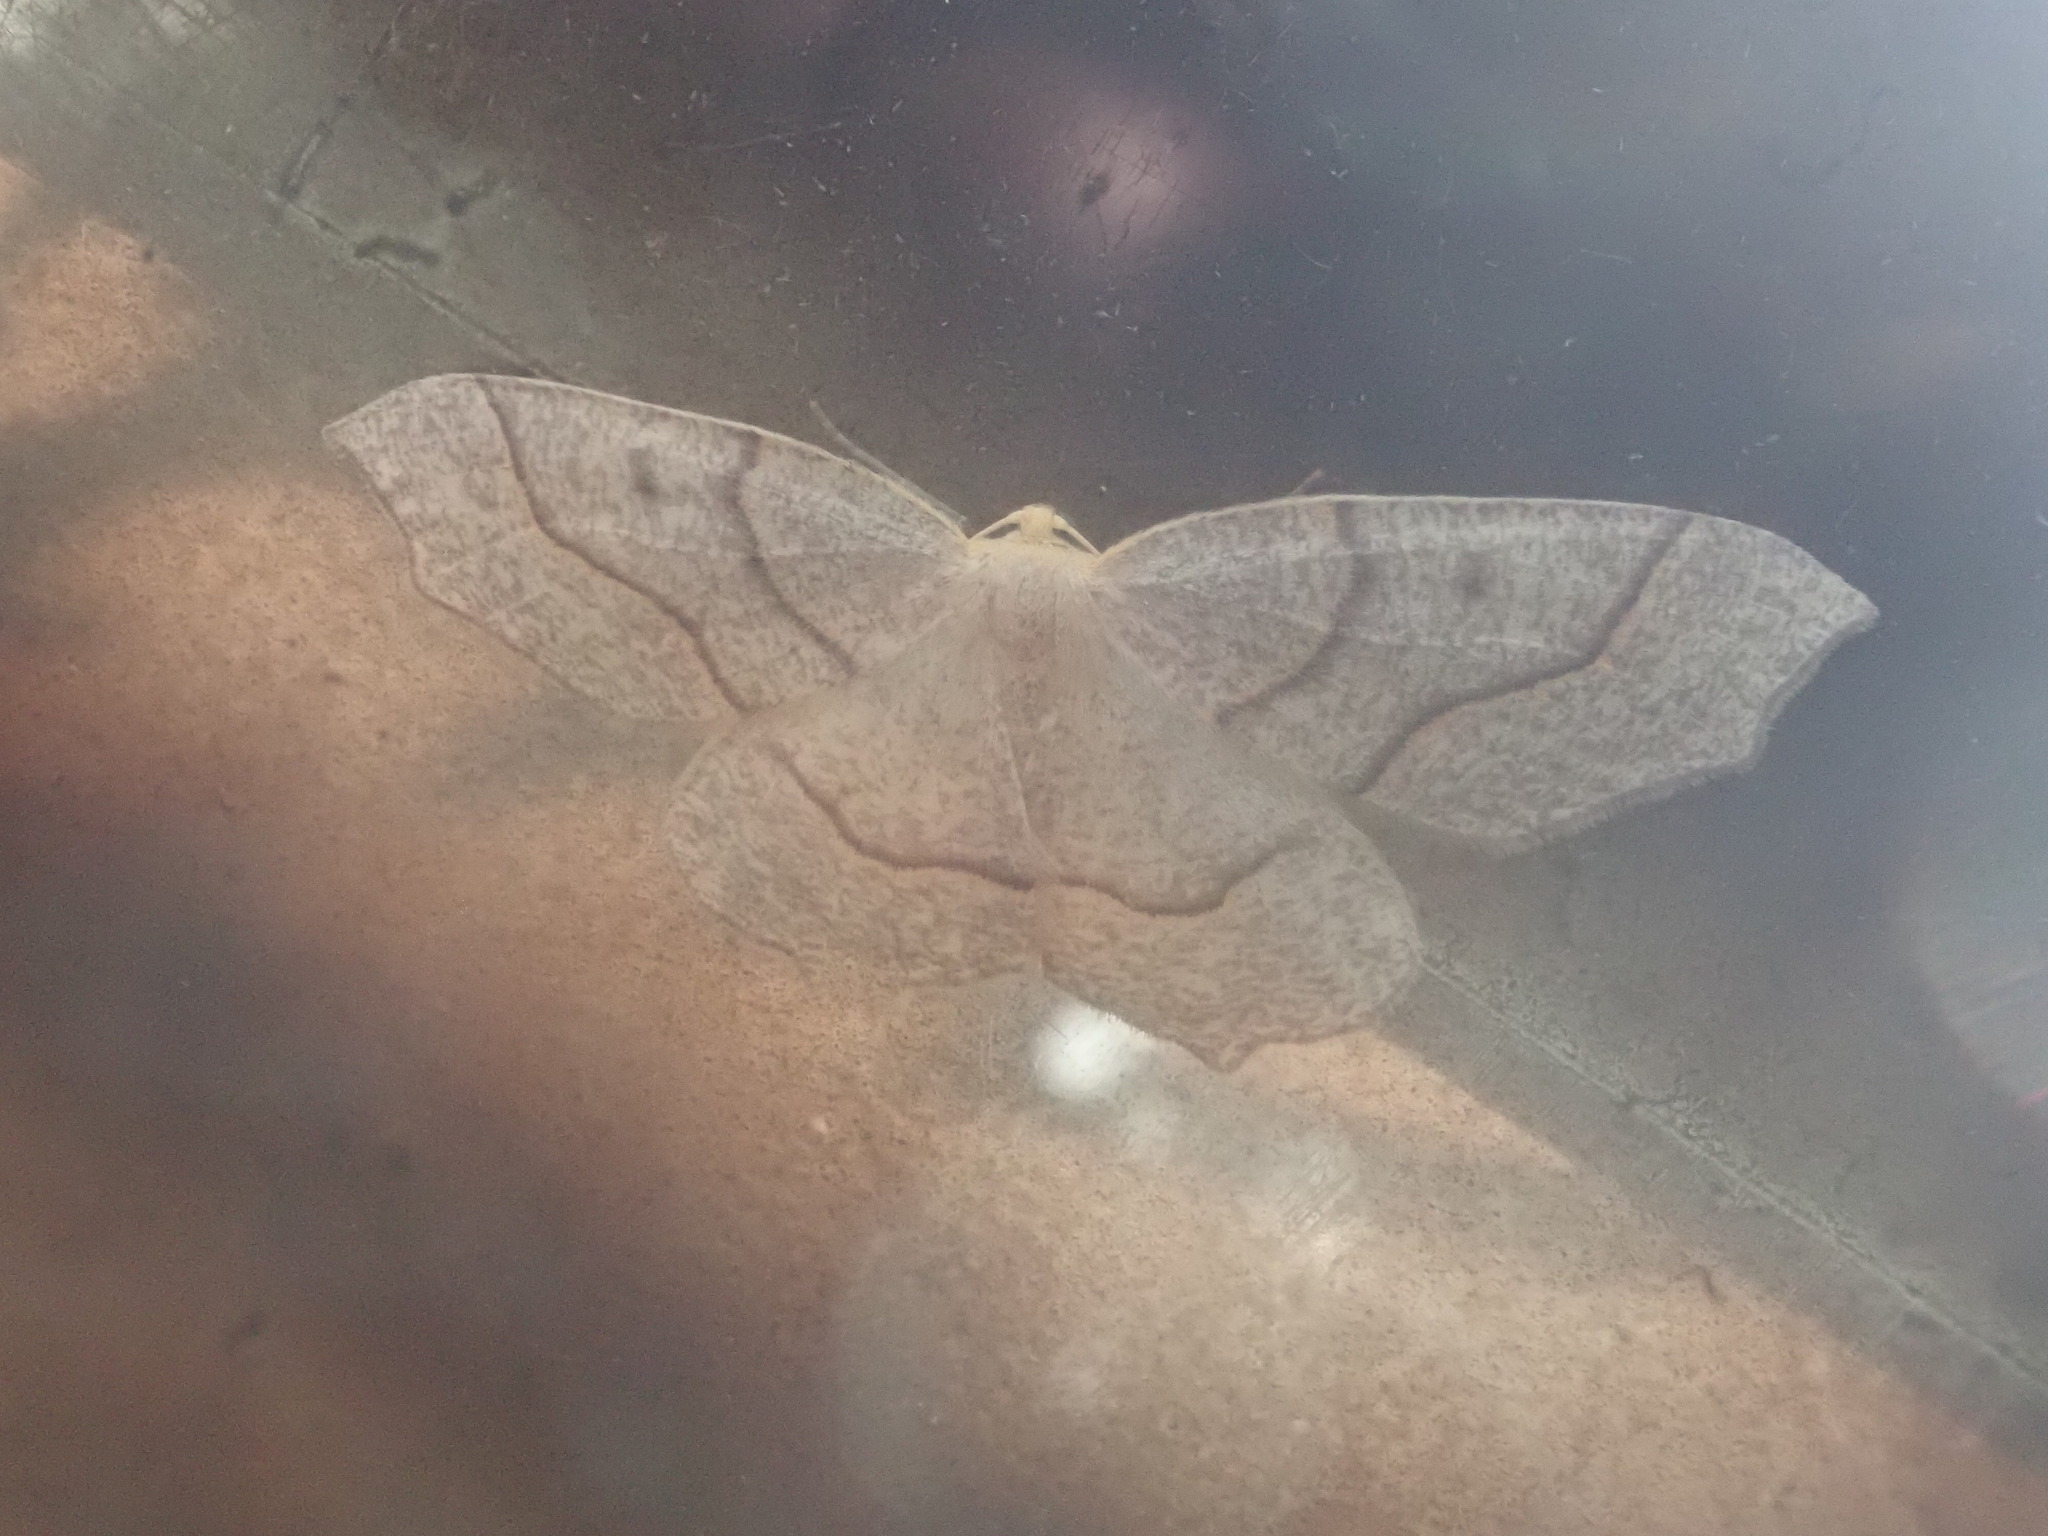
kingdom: Animalia
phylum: Arthropoda
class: Insecta
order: Lepidoptera
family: Geometridae
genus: Lambdina
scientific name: Lambdina fiscellaria
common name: Hemlock looper
